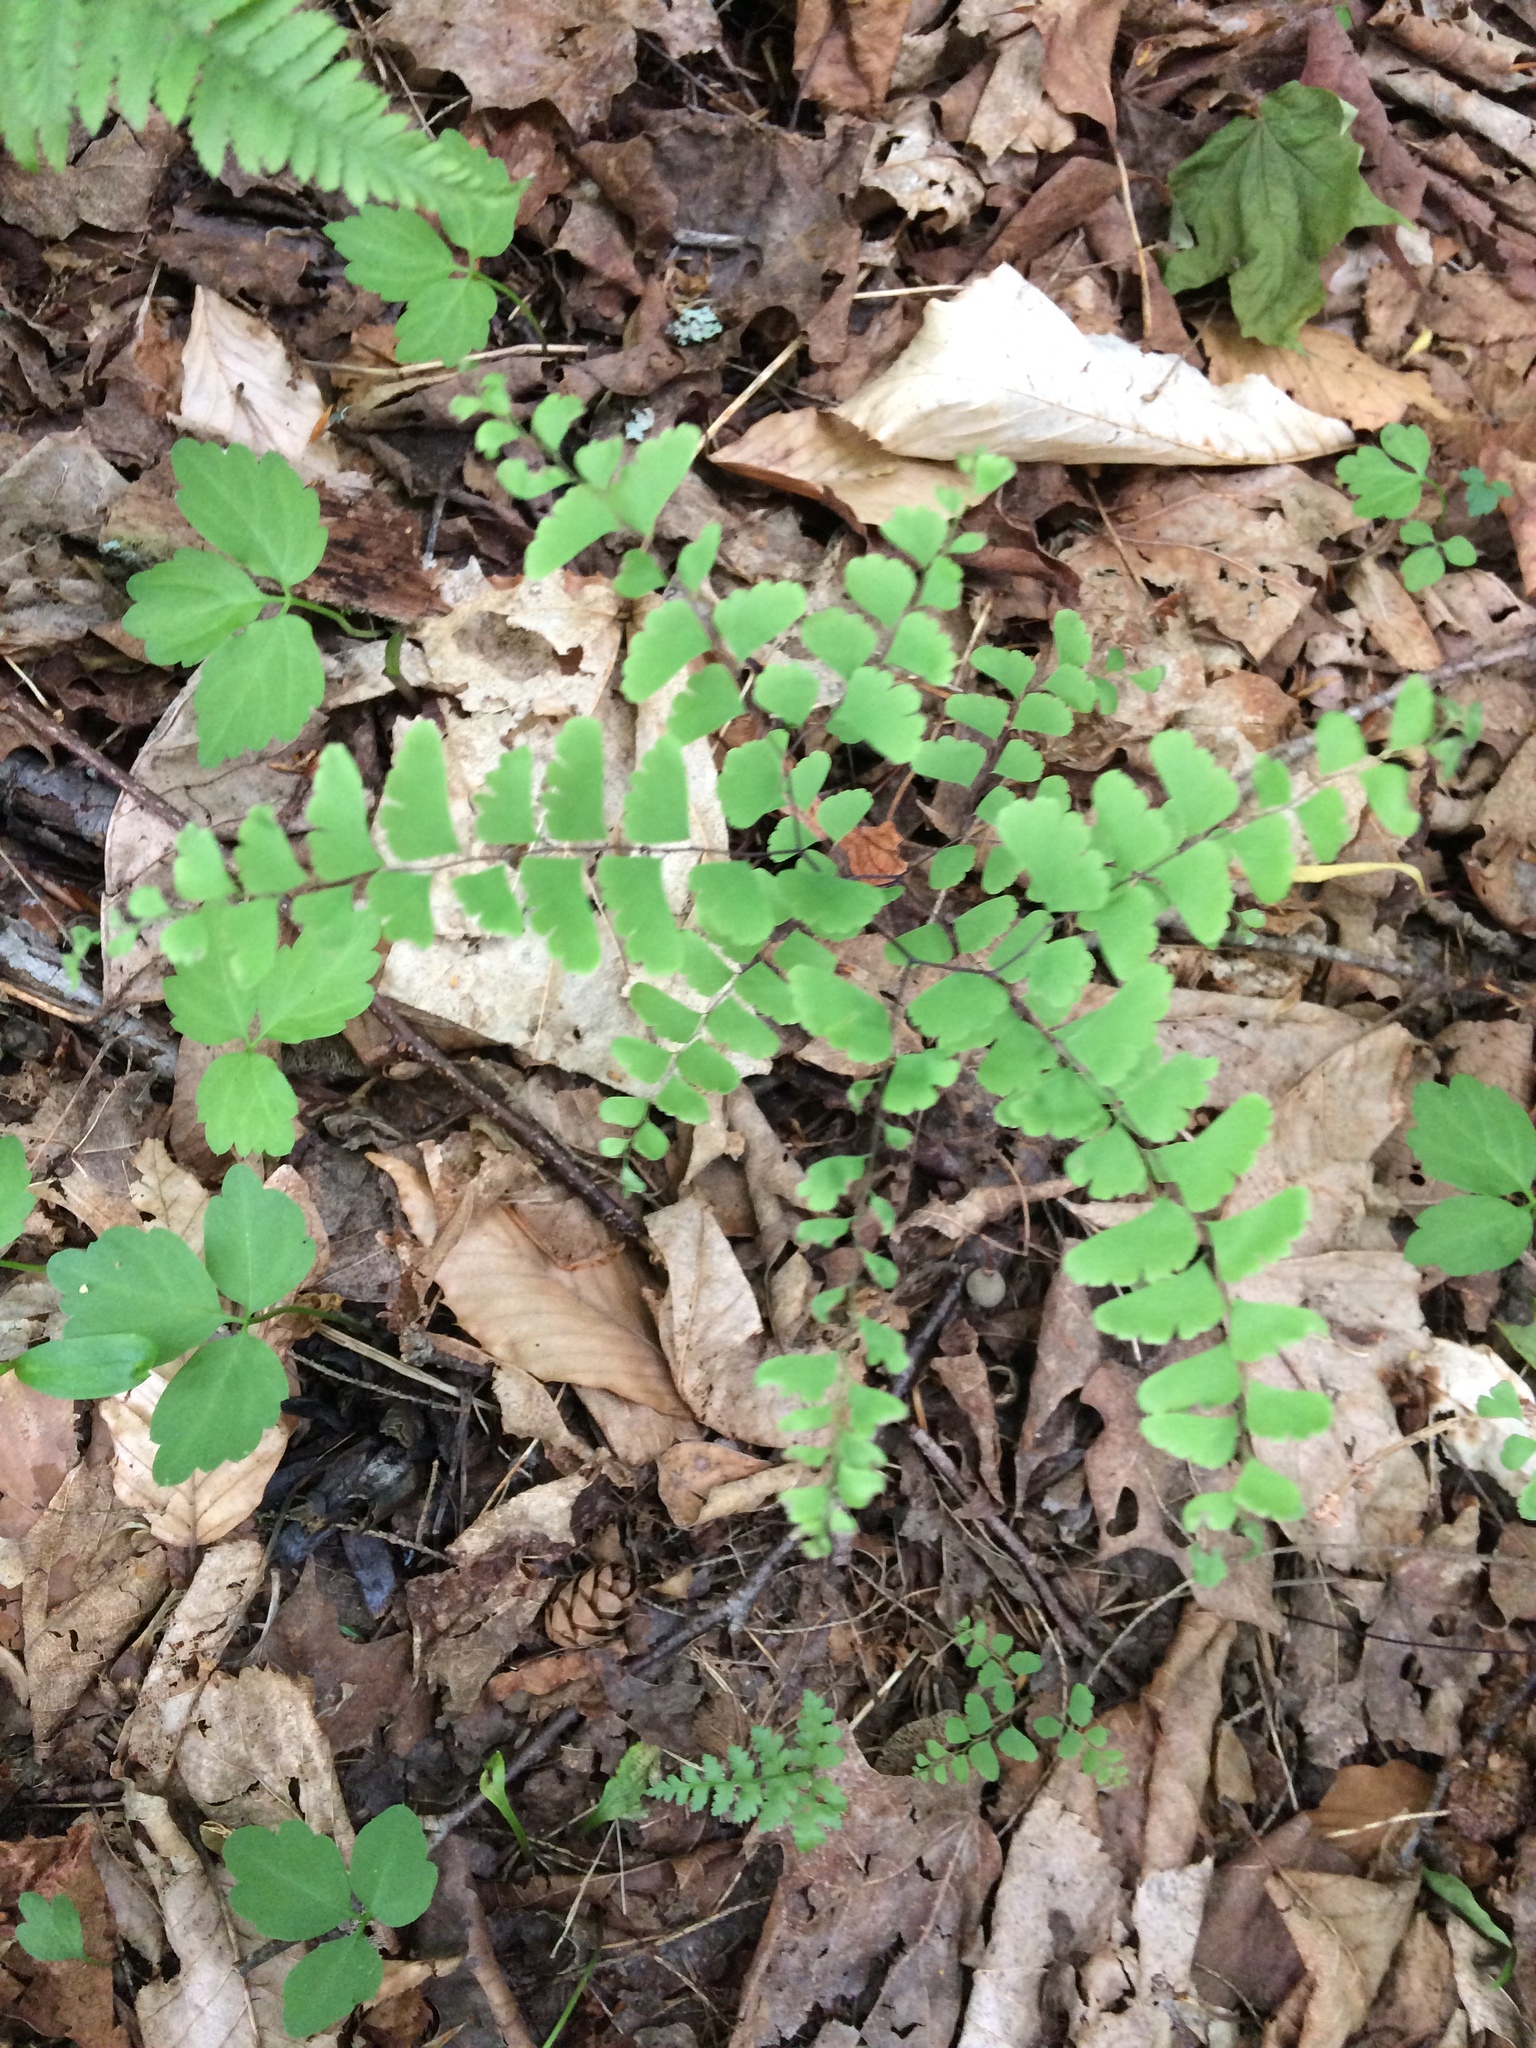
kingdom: Plantae
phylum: Tracheophyta
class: Polypodiopsida
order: Polypodiales
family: Pteridaceae
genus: Adiantum
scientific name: Adiantum pedatum
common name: Five-finger fern
